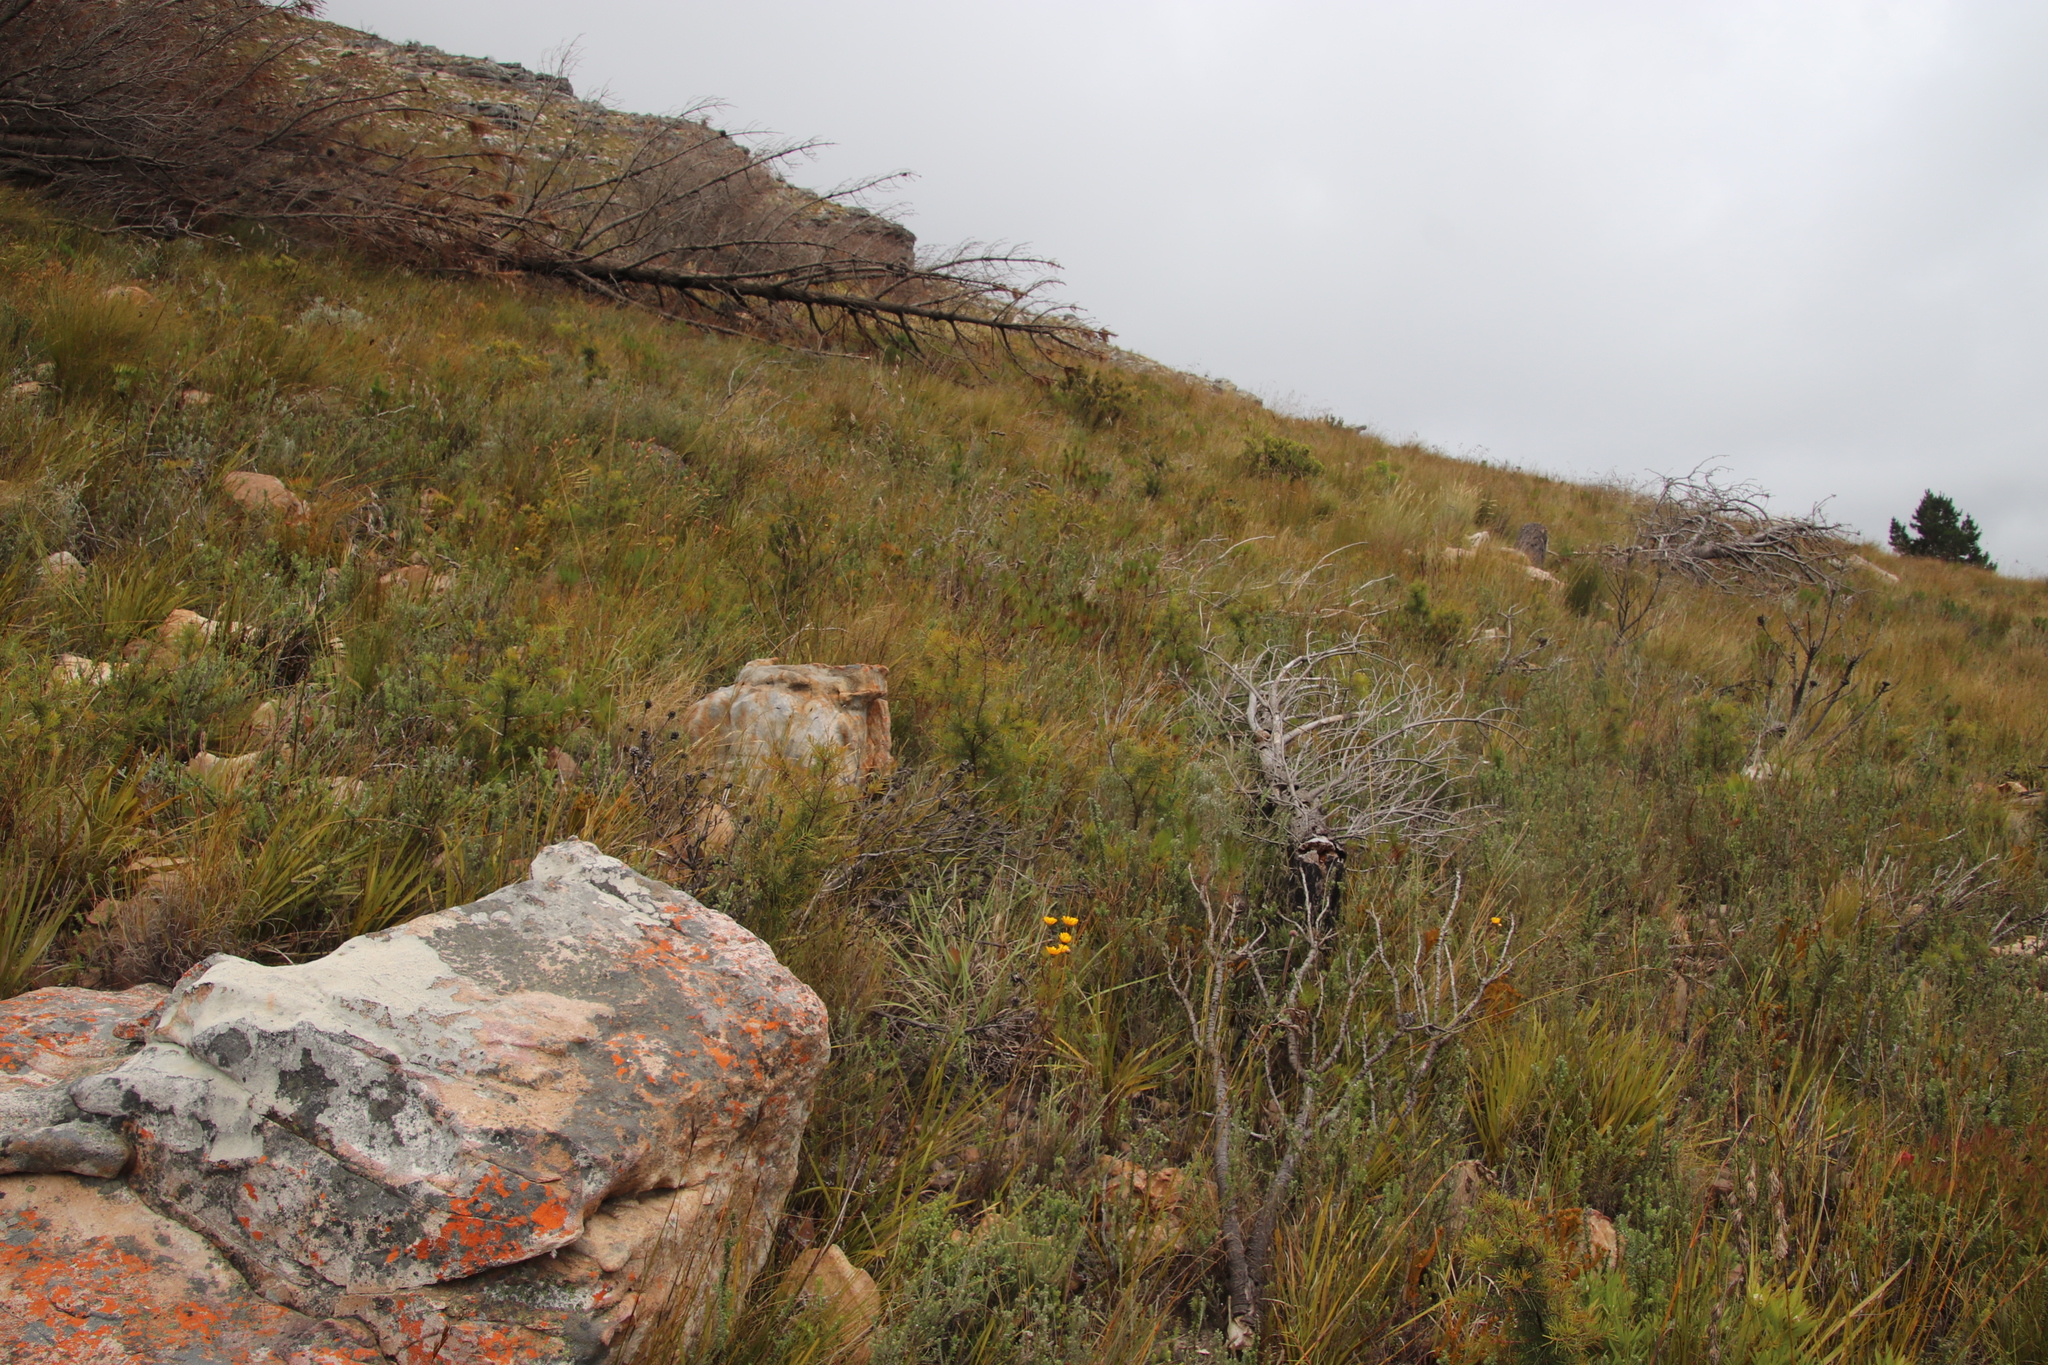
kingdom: Plantae
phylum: Tracheophyta
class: Magnoliopsida
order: Proteales
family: Proteaceae
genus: Hakea
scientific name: Hakea sericea
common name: Needle bush
